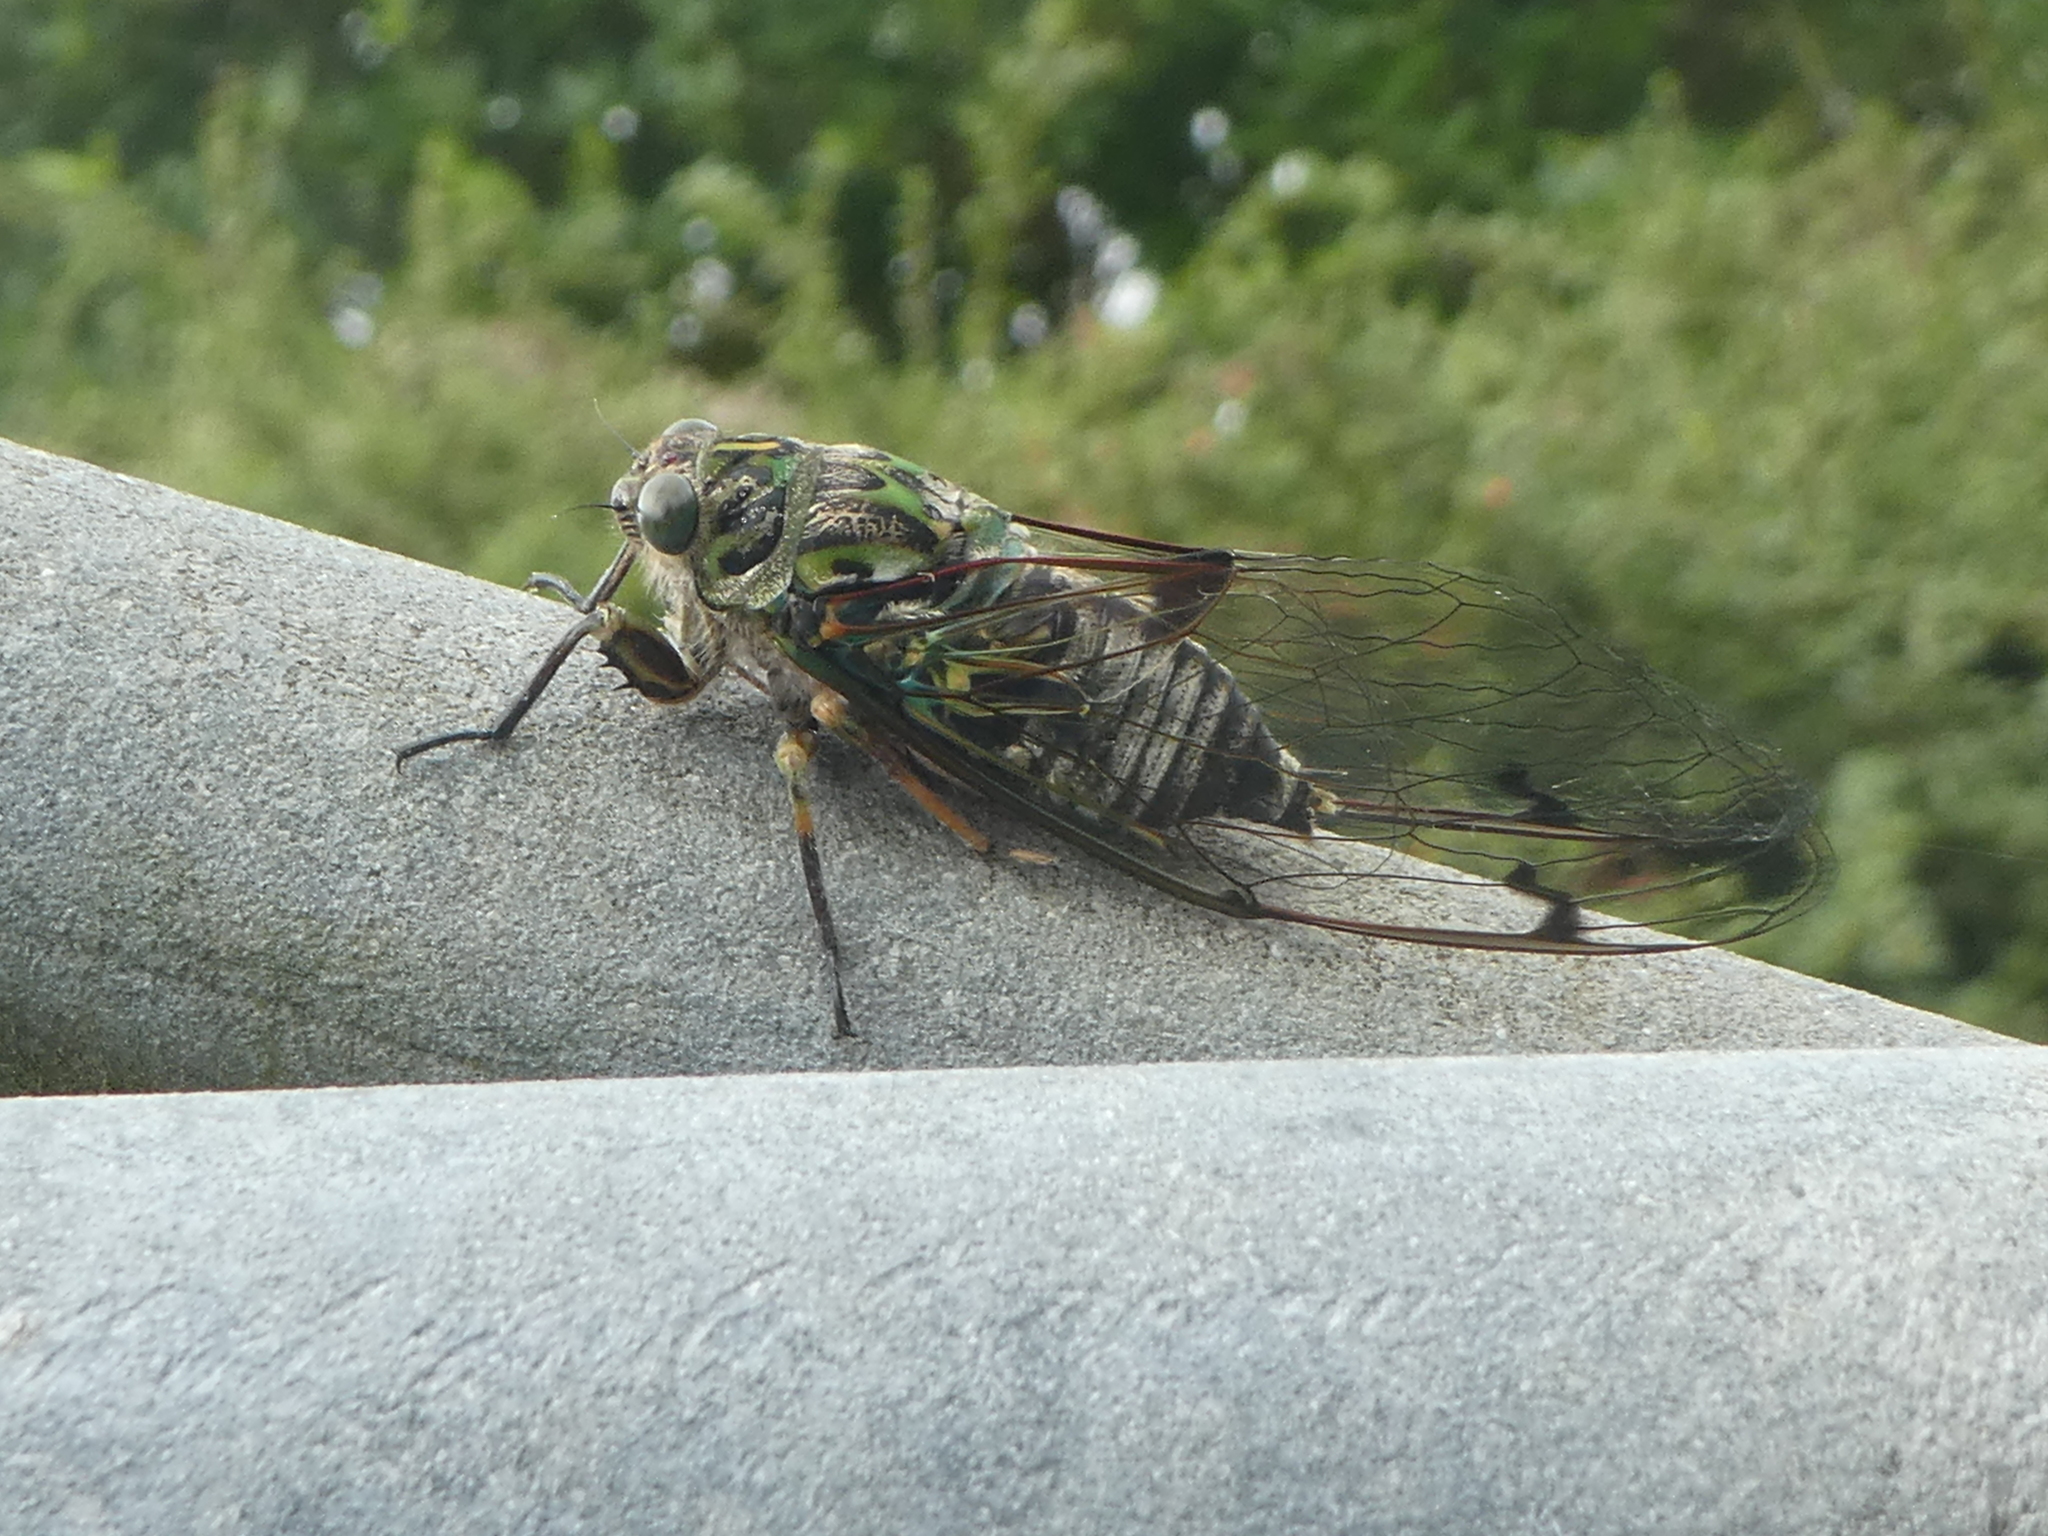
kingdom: Animalia
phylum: Arthropoda
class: Insecta
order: Hemiptera
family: Cicadidae
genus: Amphipsalta
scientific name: Amphipsalta zelandica
